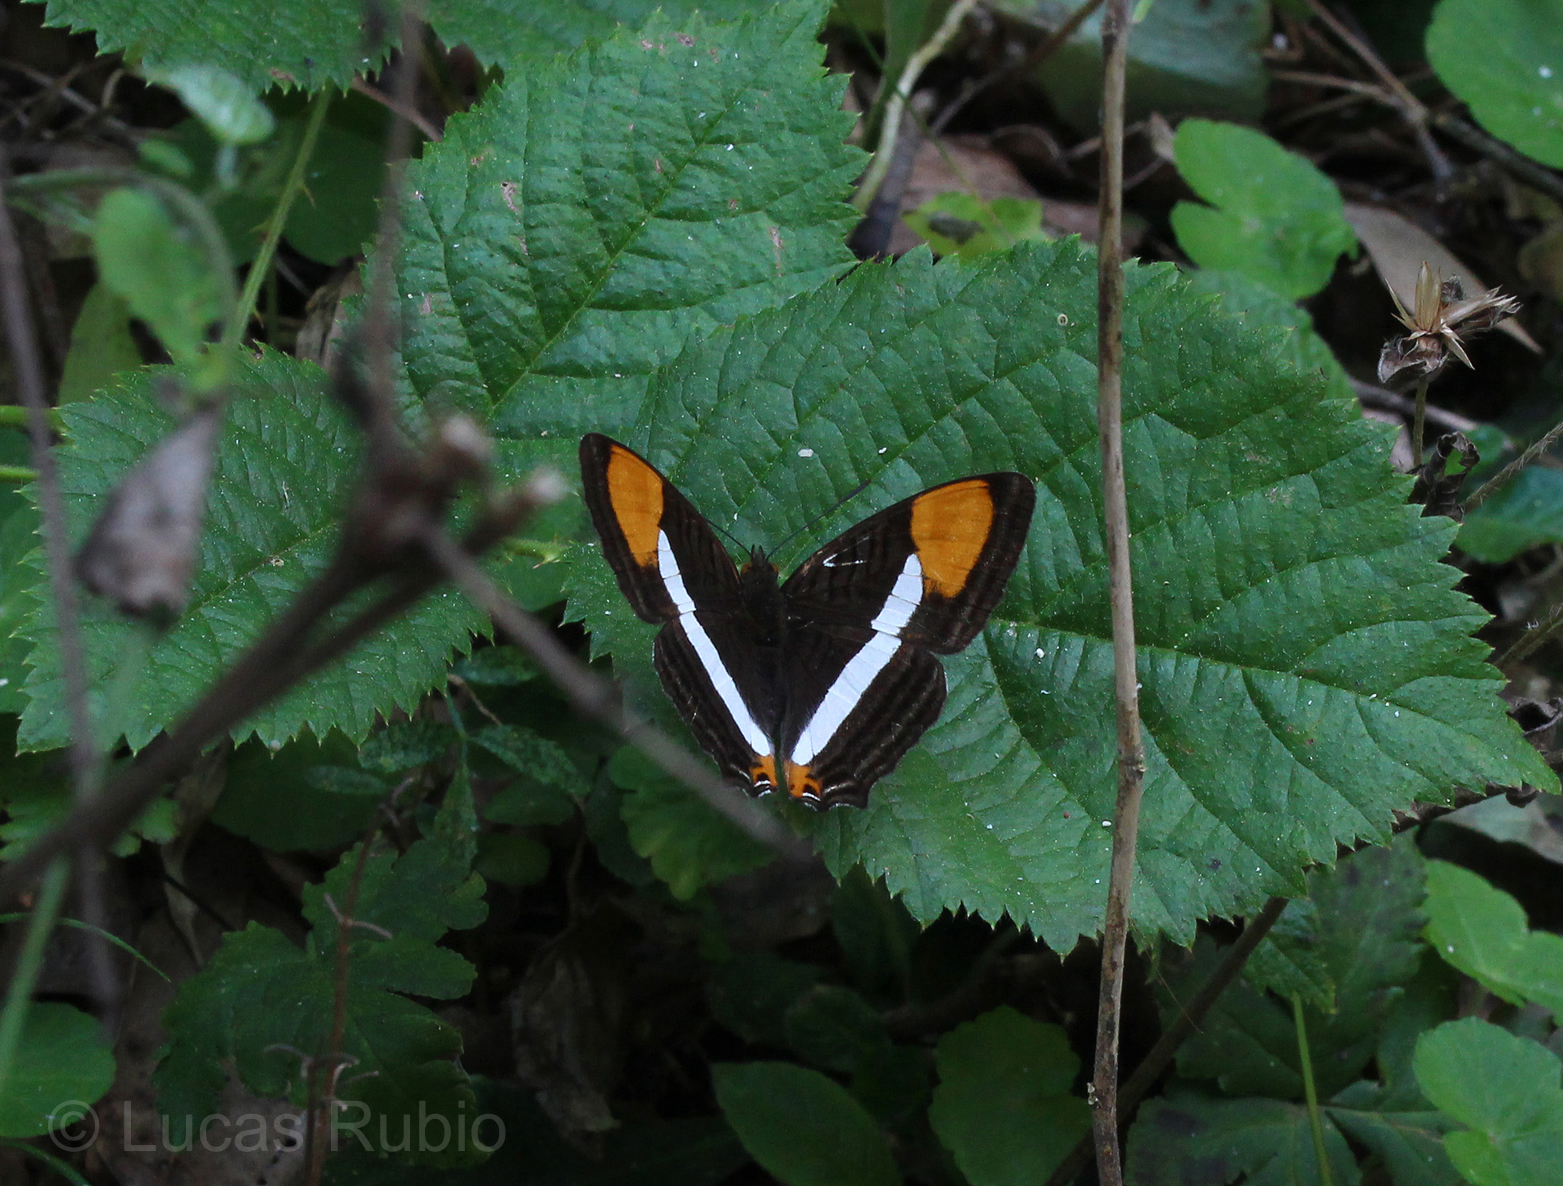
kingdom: Animalia
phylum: Arthropoda
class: Insecta
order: Lepidoptera
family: Nymphalidae
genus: Limenitis
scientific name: Limenitis syma
